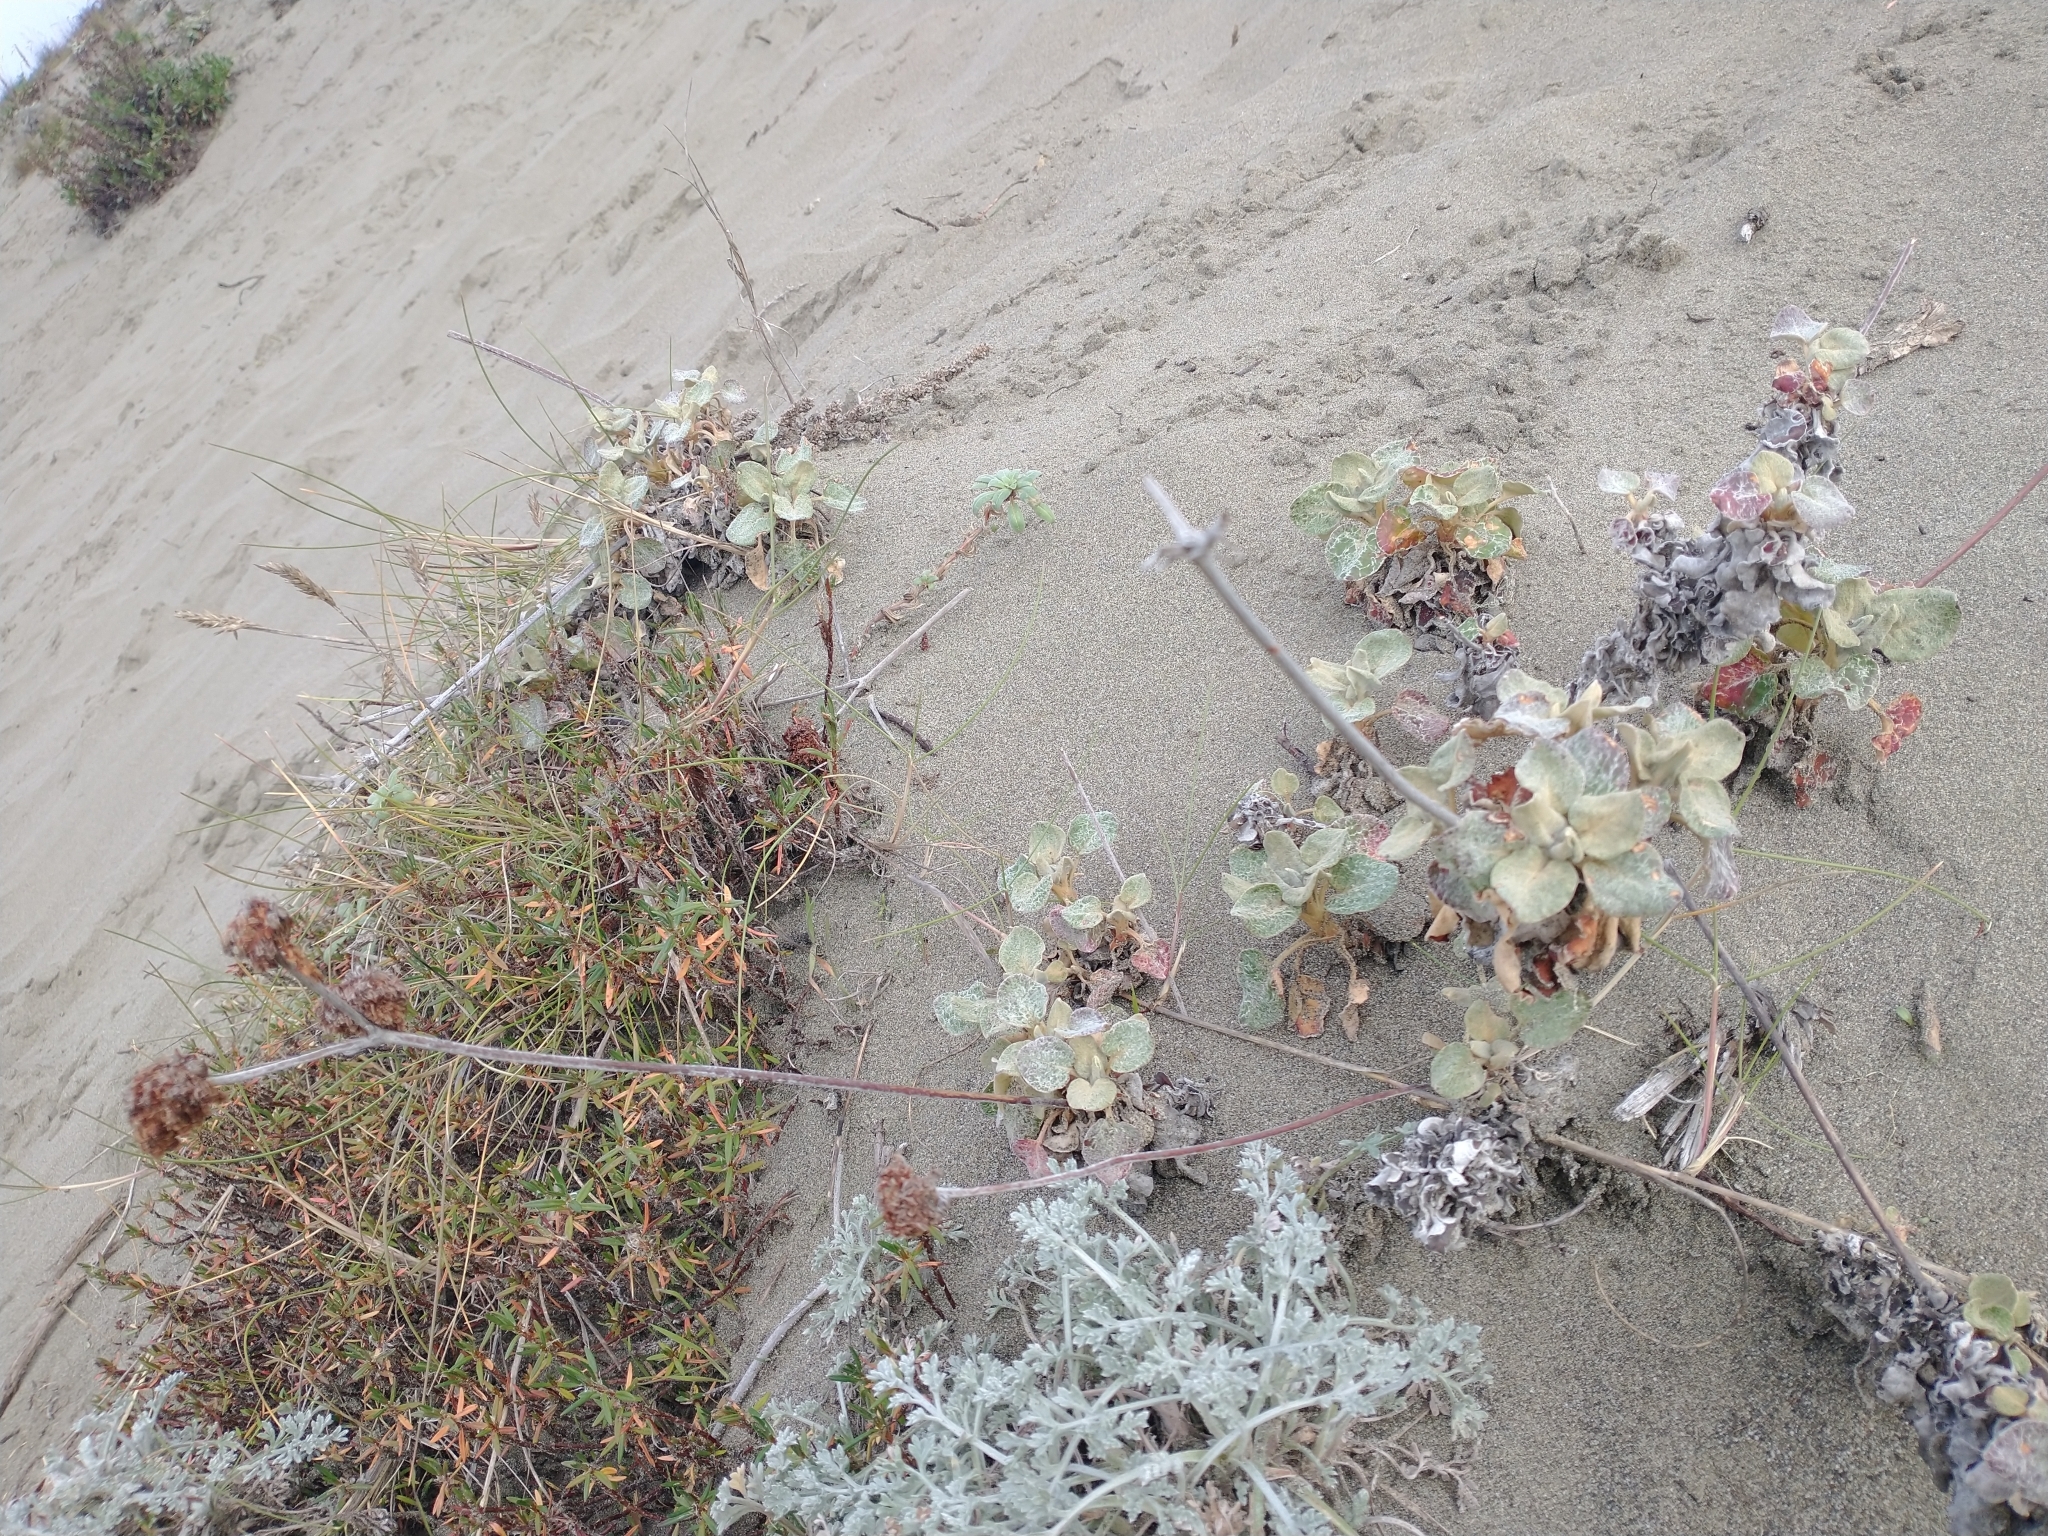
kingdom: Plantae
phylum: Tracheophyta
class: Magnoliopsida
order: Caryophyllales
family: Polygonaceae
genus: Eriogonum
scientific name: Eriogonum latifolium
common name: Seaside wild buckwheat
